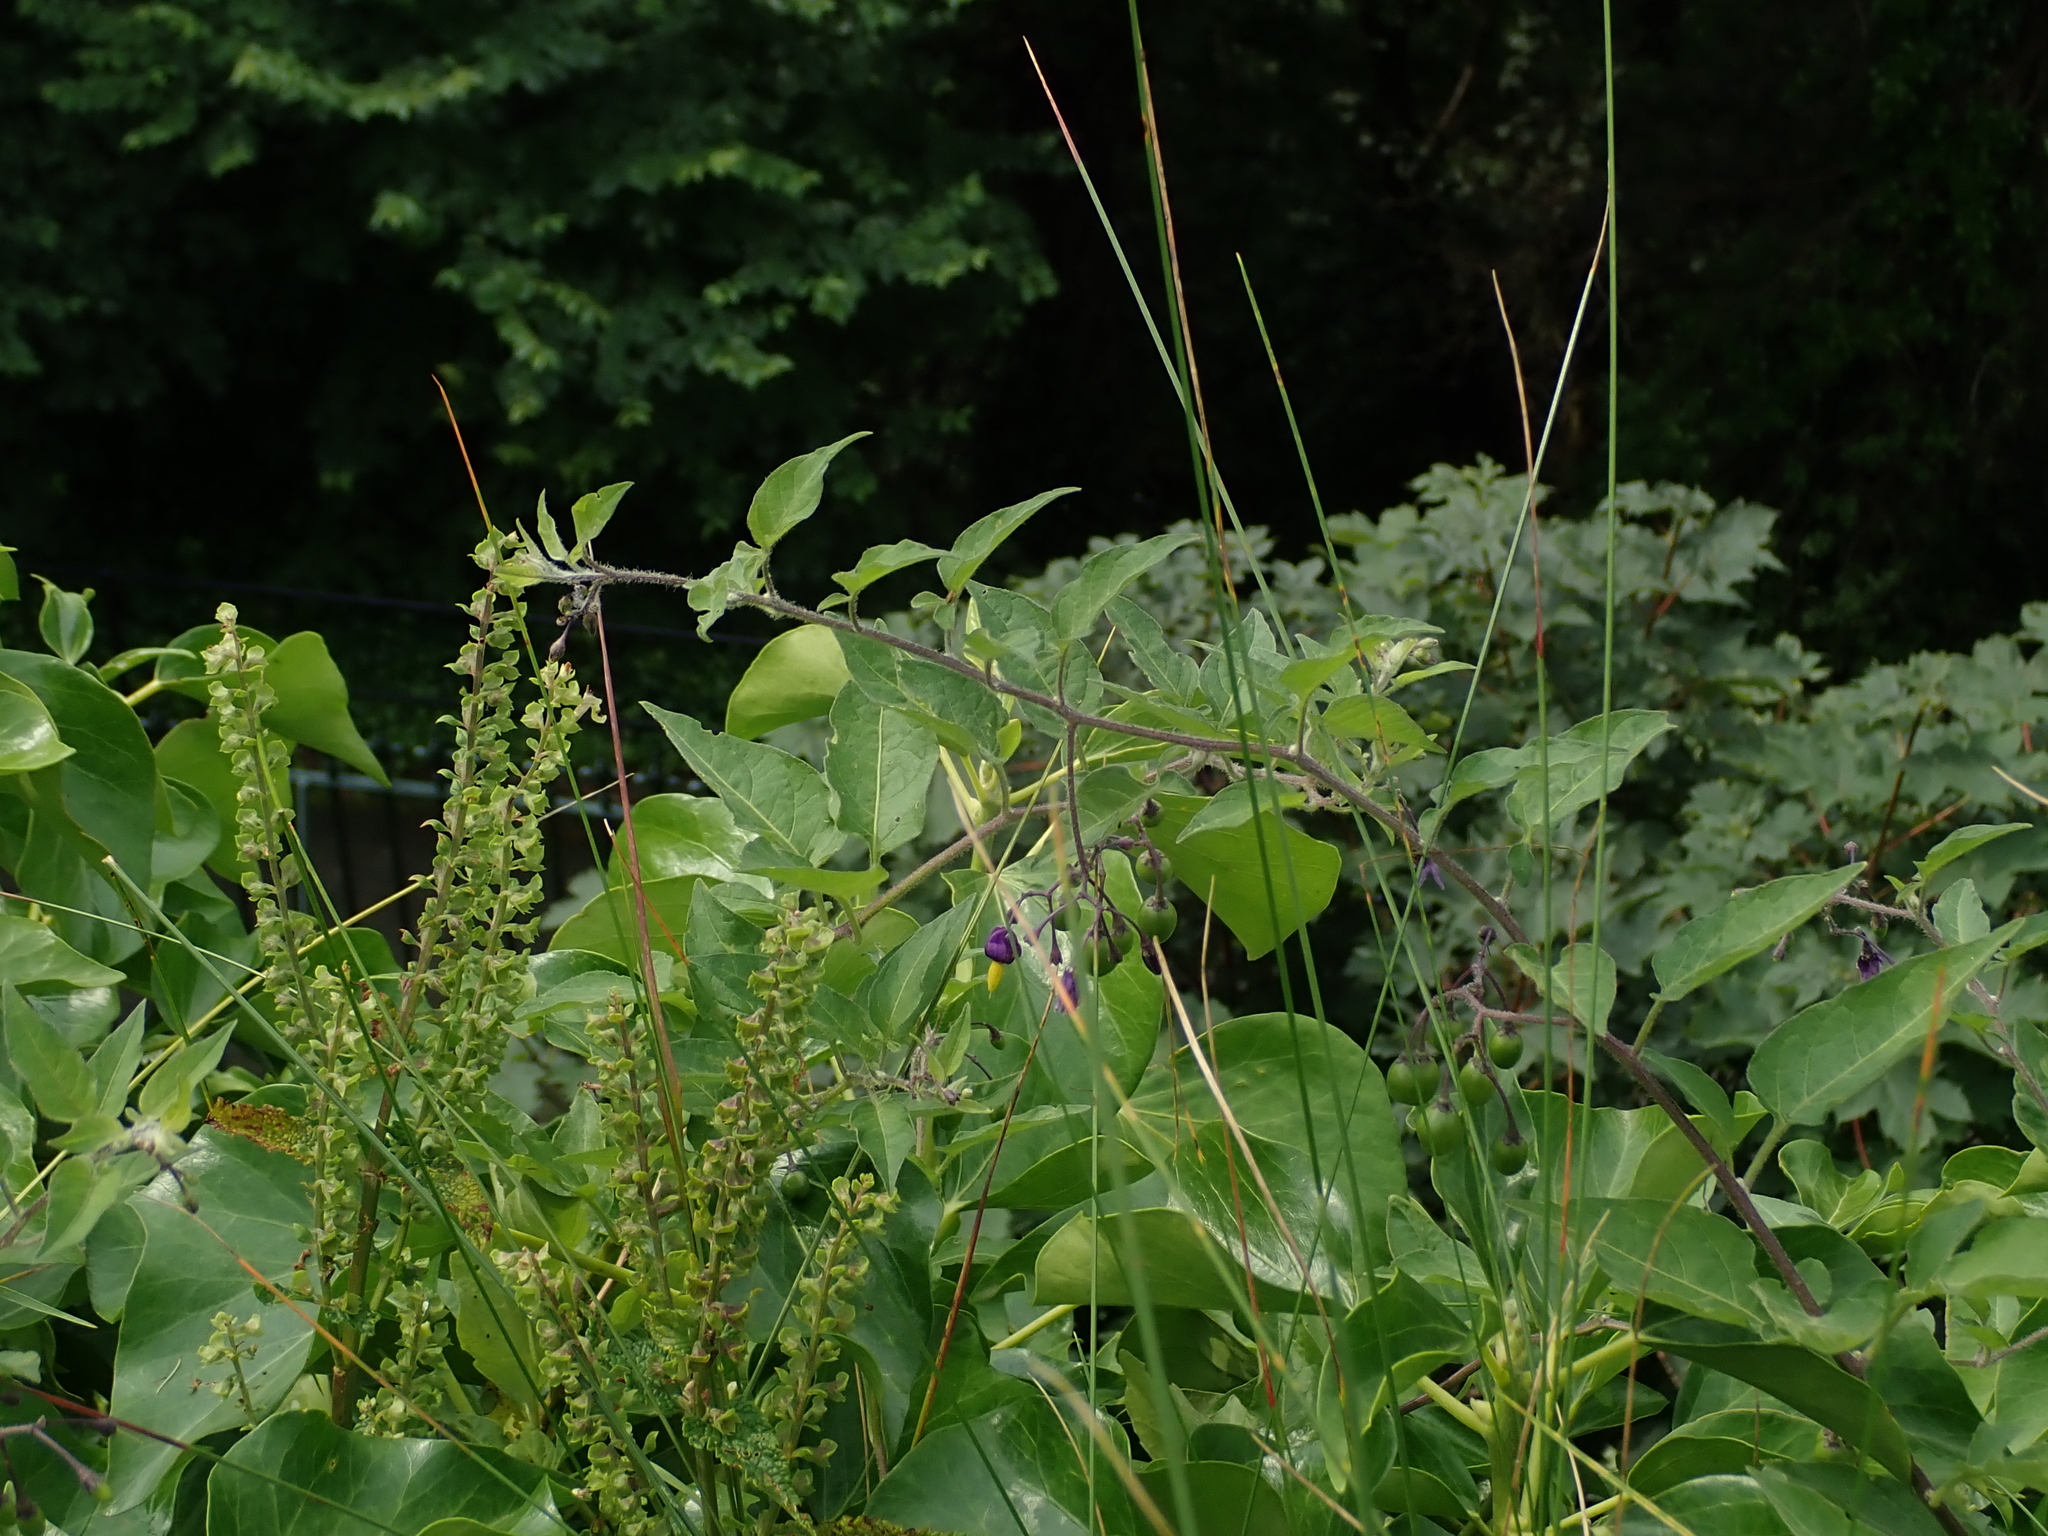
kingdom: Plantae
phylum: Tracheophyta
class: Magnoliopsida
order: Solanales
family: Solanaceae
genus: Solanum
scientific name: Solanum dulcamara
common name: Climbing nightshade
